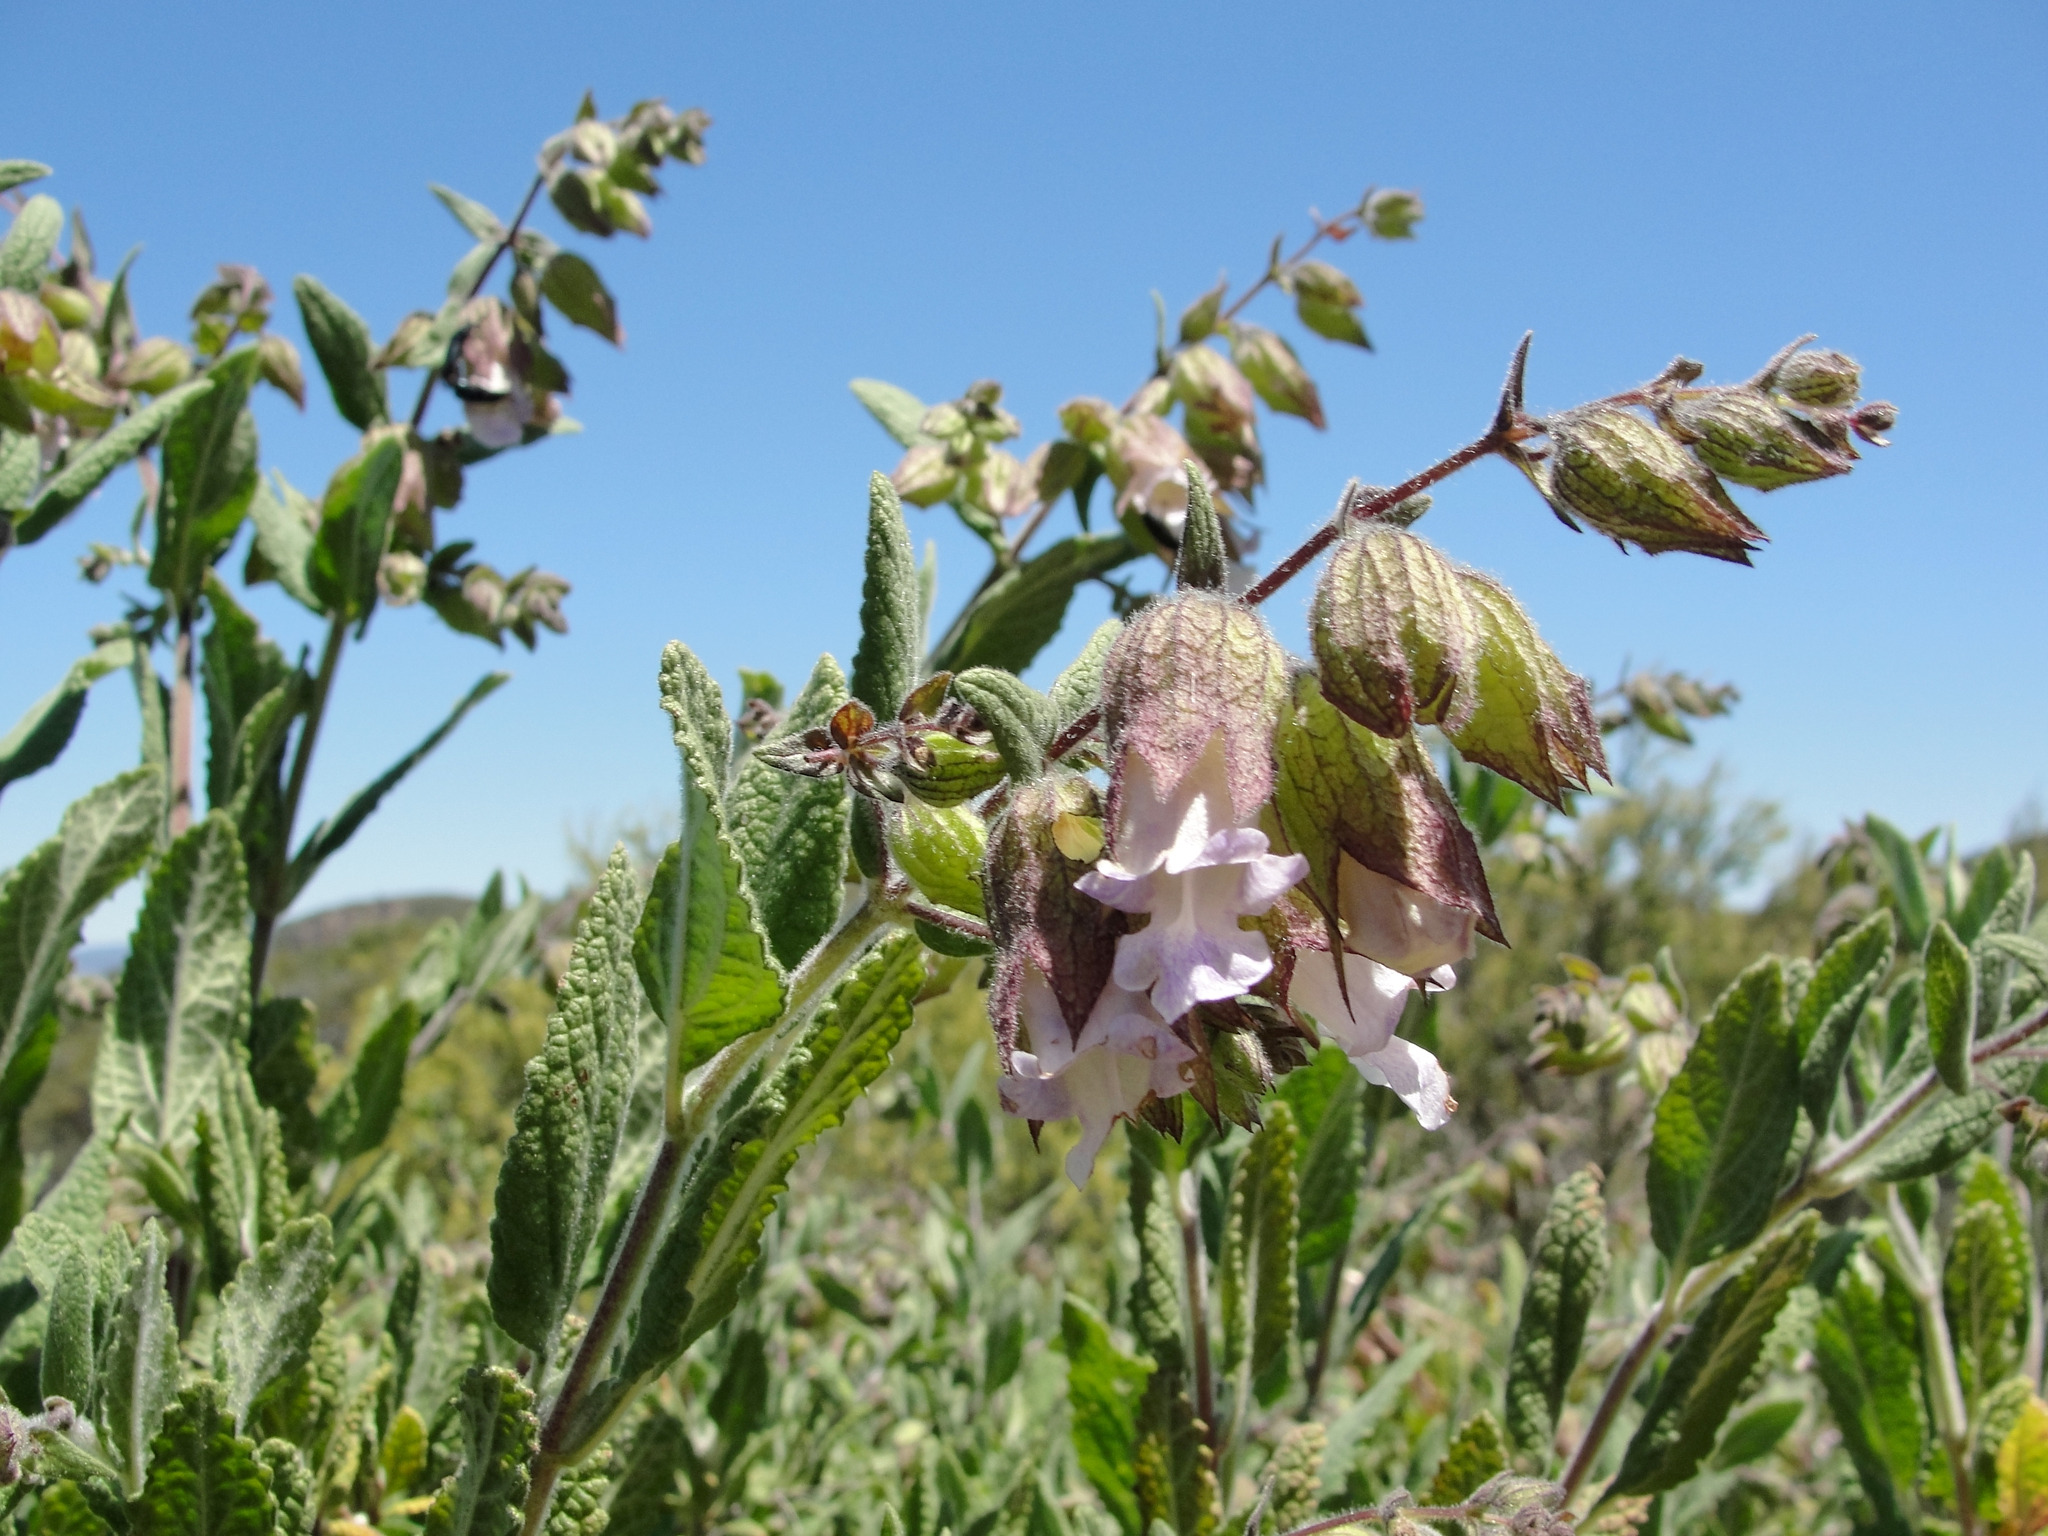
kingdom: Plantae
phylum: Tracheophyta
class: Magnoliopsida
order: Lamiales
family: Lamiaceae
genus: Lepechinia
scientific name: Lepechinia calycina
